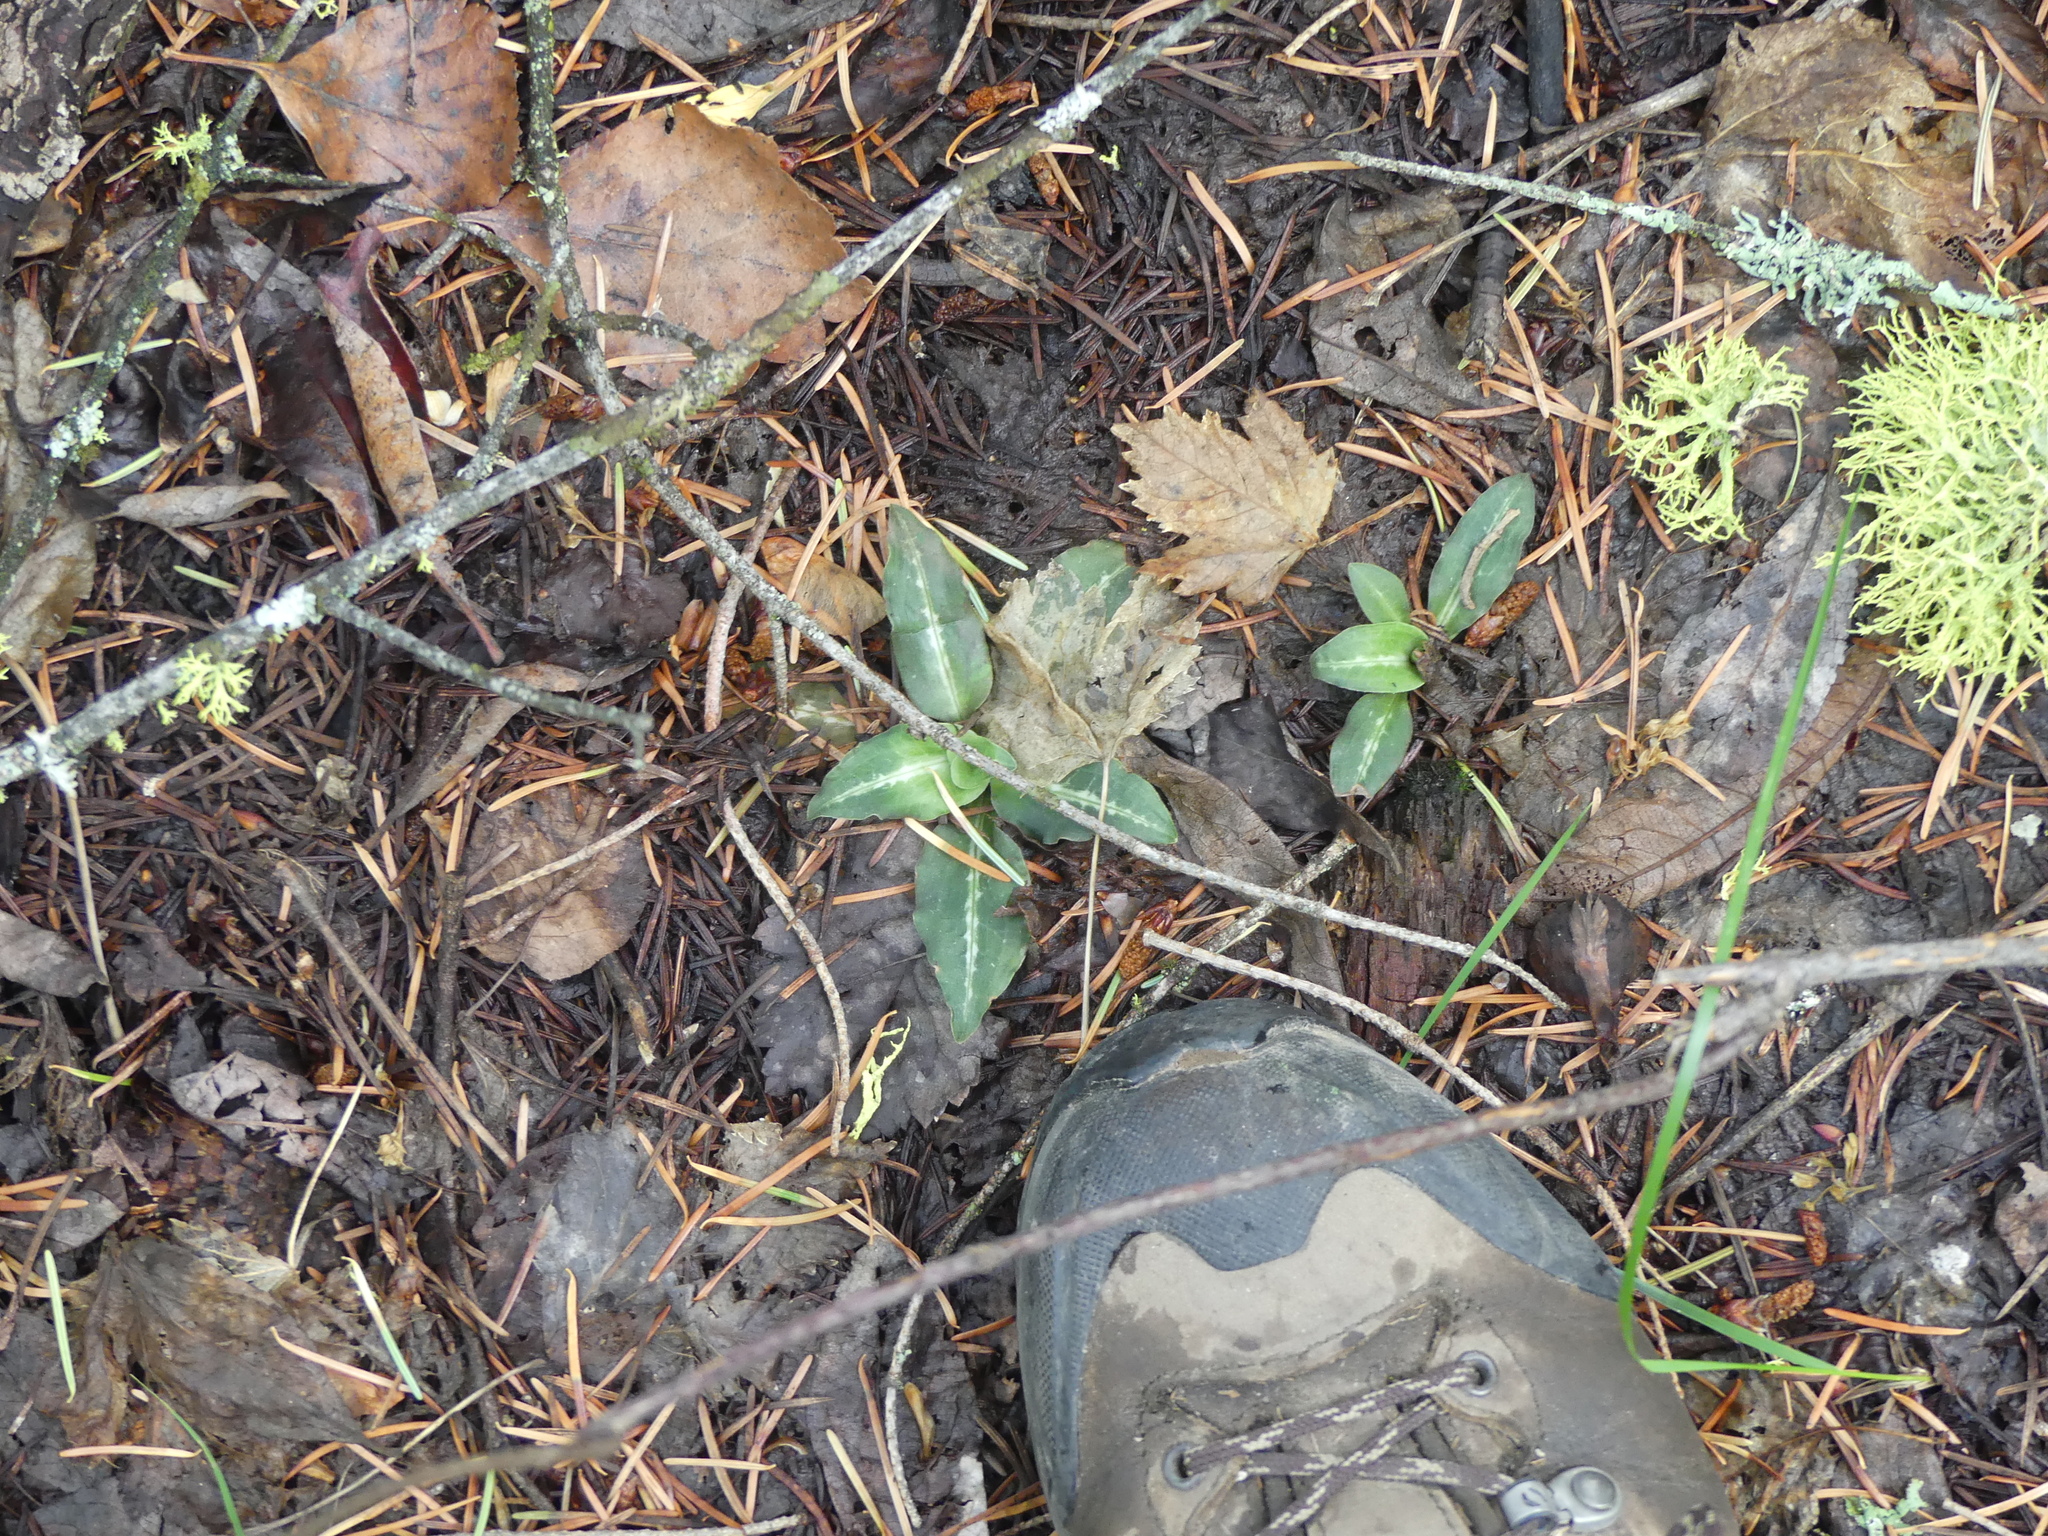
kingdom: Plantae
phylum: Tracheophyta
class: Liliopsida
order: Asparagales
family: Orchidaceae
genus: Goodyera
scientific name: Goodyera oblongifolia
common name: Giant rattlesnake-plantain
